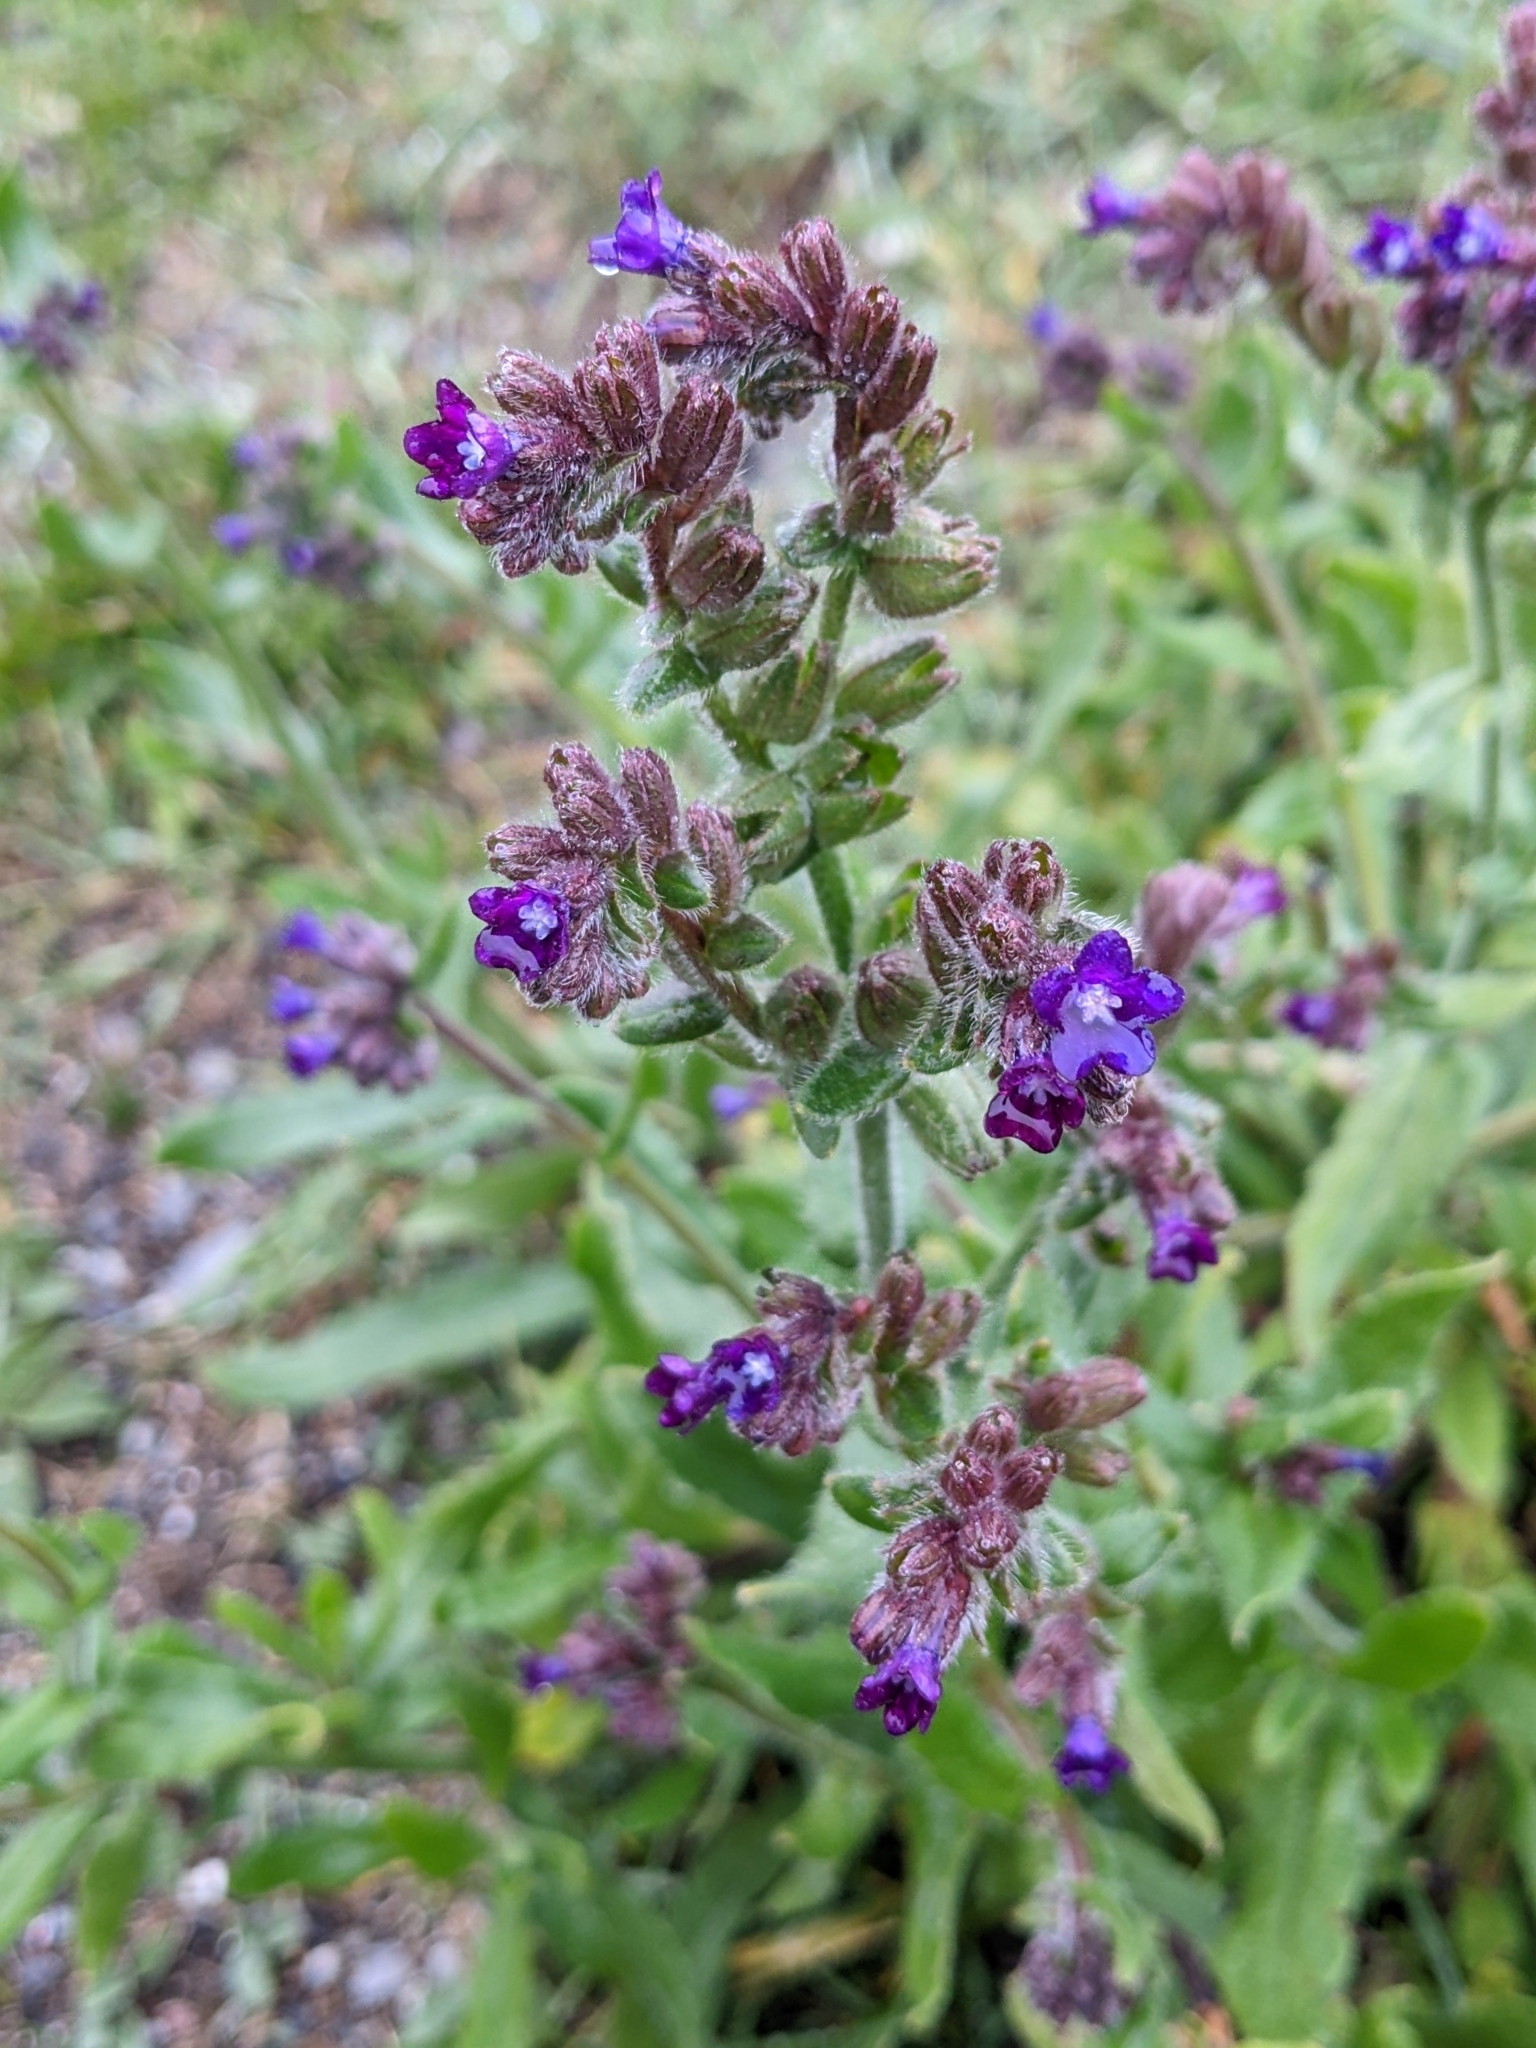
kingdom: Plantae
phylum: Tracheophyta
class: Magnoliopsida
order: Boraginales
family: Boraginaceae
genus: Anchusa
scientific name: Anchusa officinalis
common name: Alkanet
